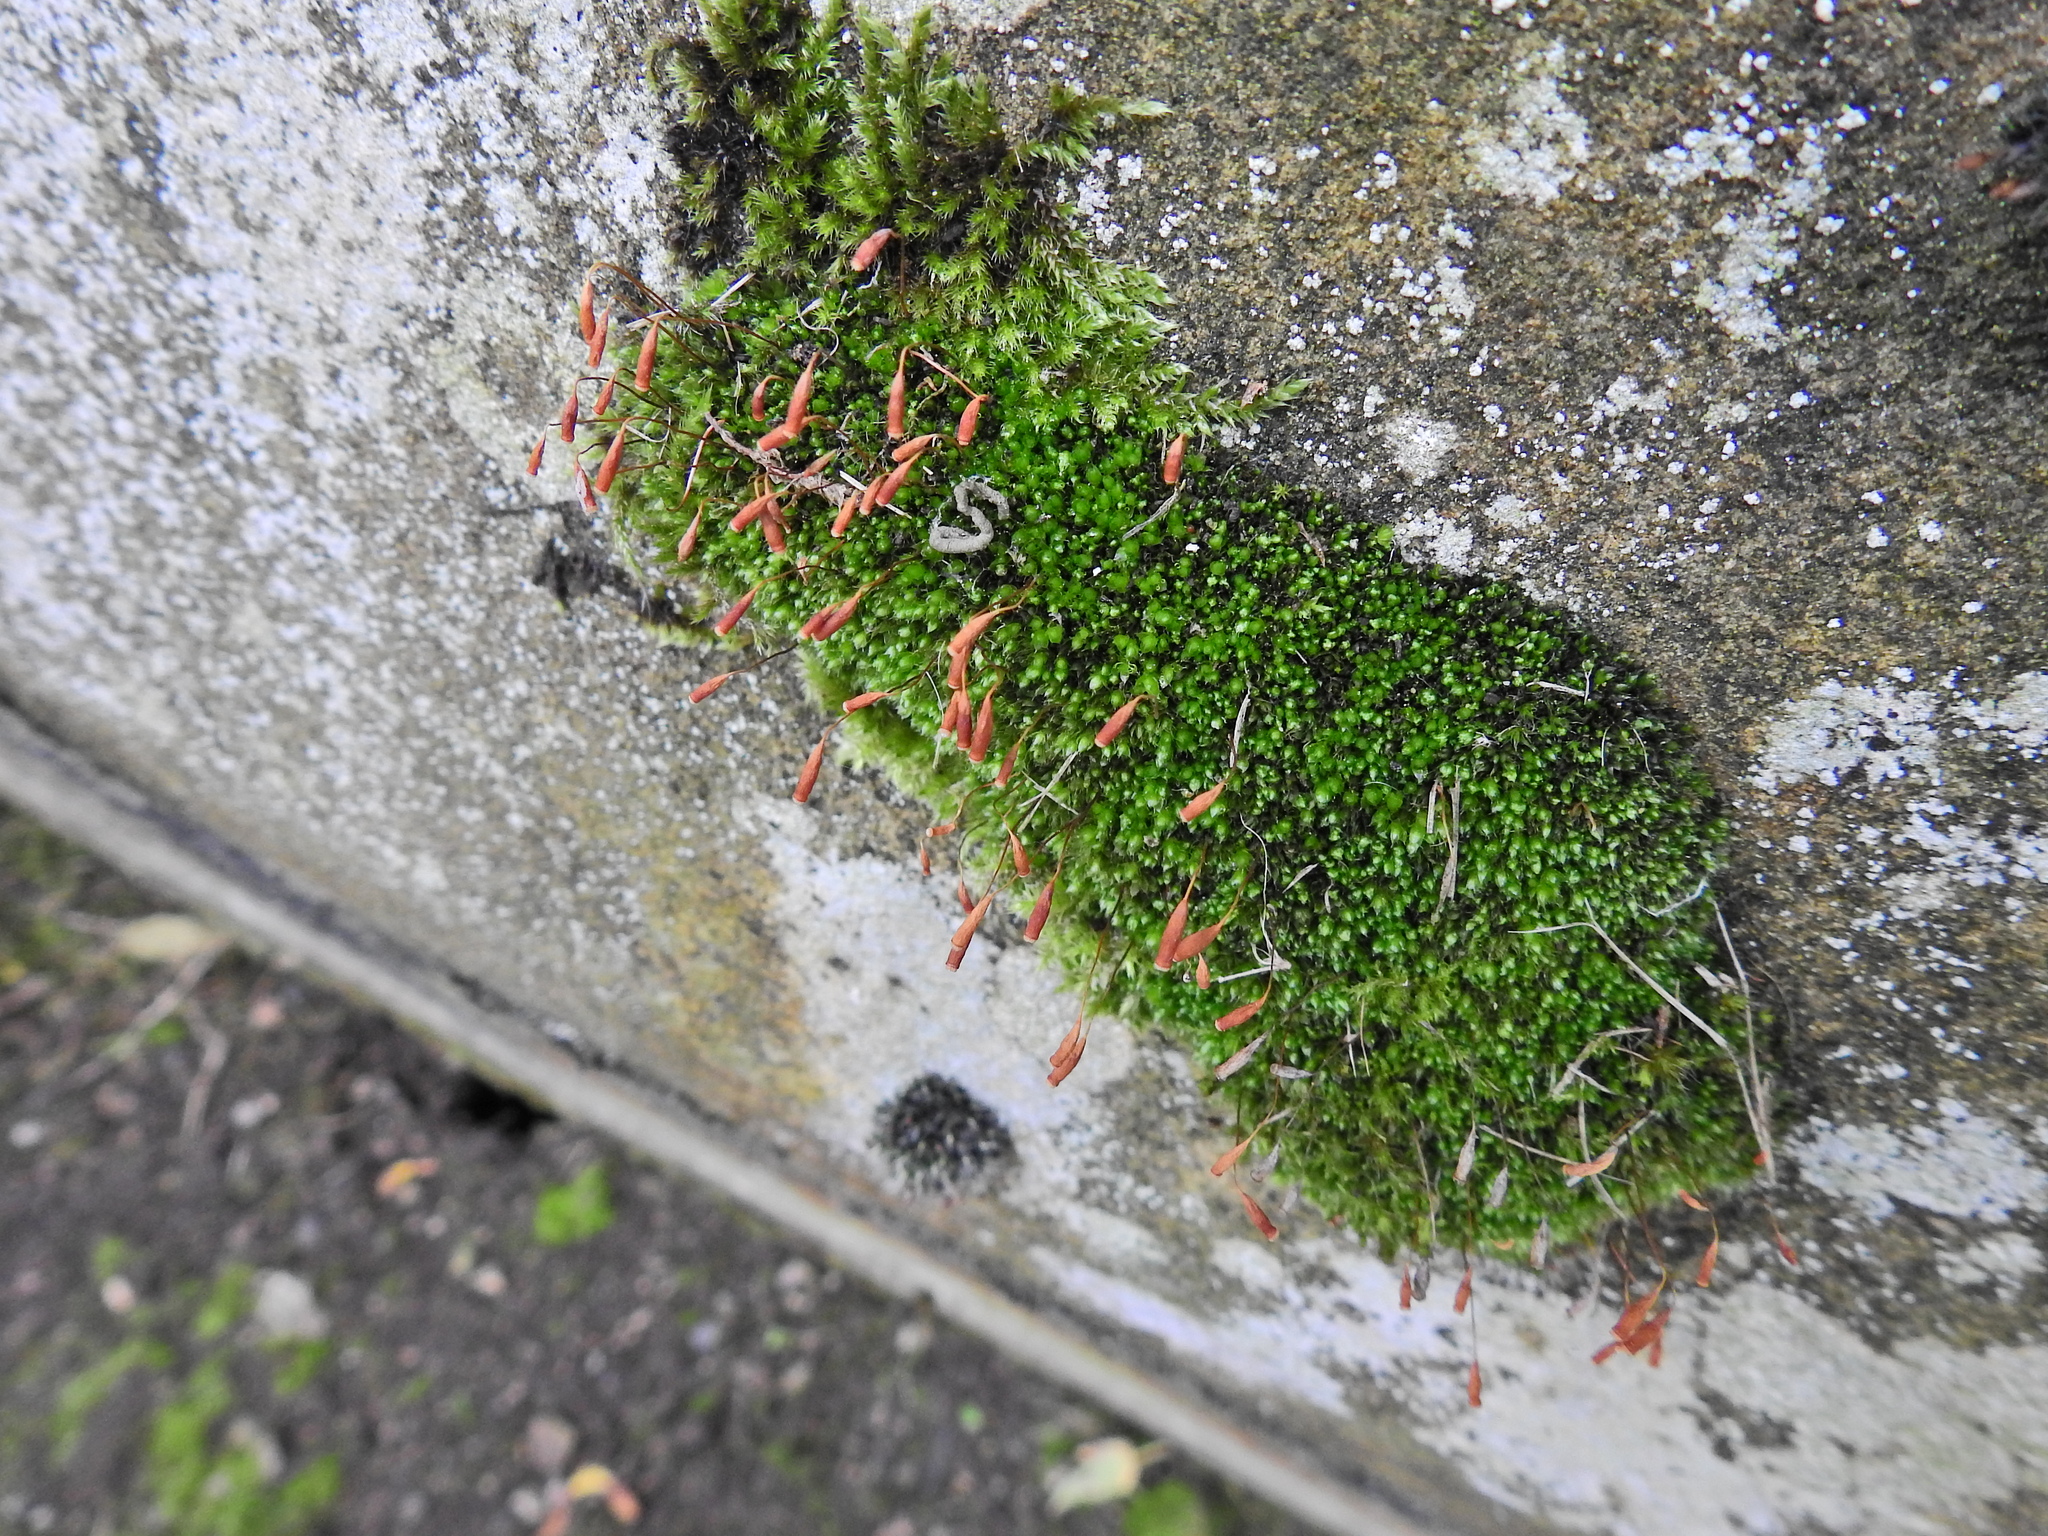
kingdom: Plantae
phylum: Bryophyta
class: Bryopsida
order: Bryales
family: Bryaceae
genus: Rosulabryum
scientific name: Rosulabryum capillare
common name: Capillary thread-moss
